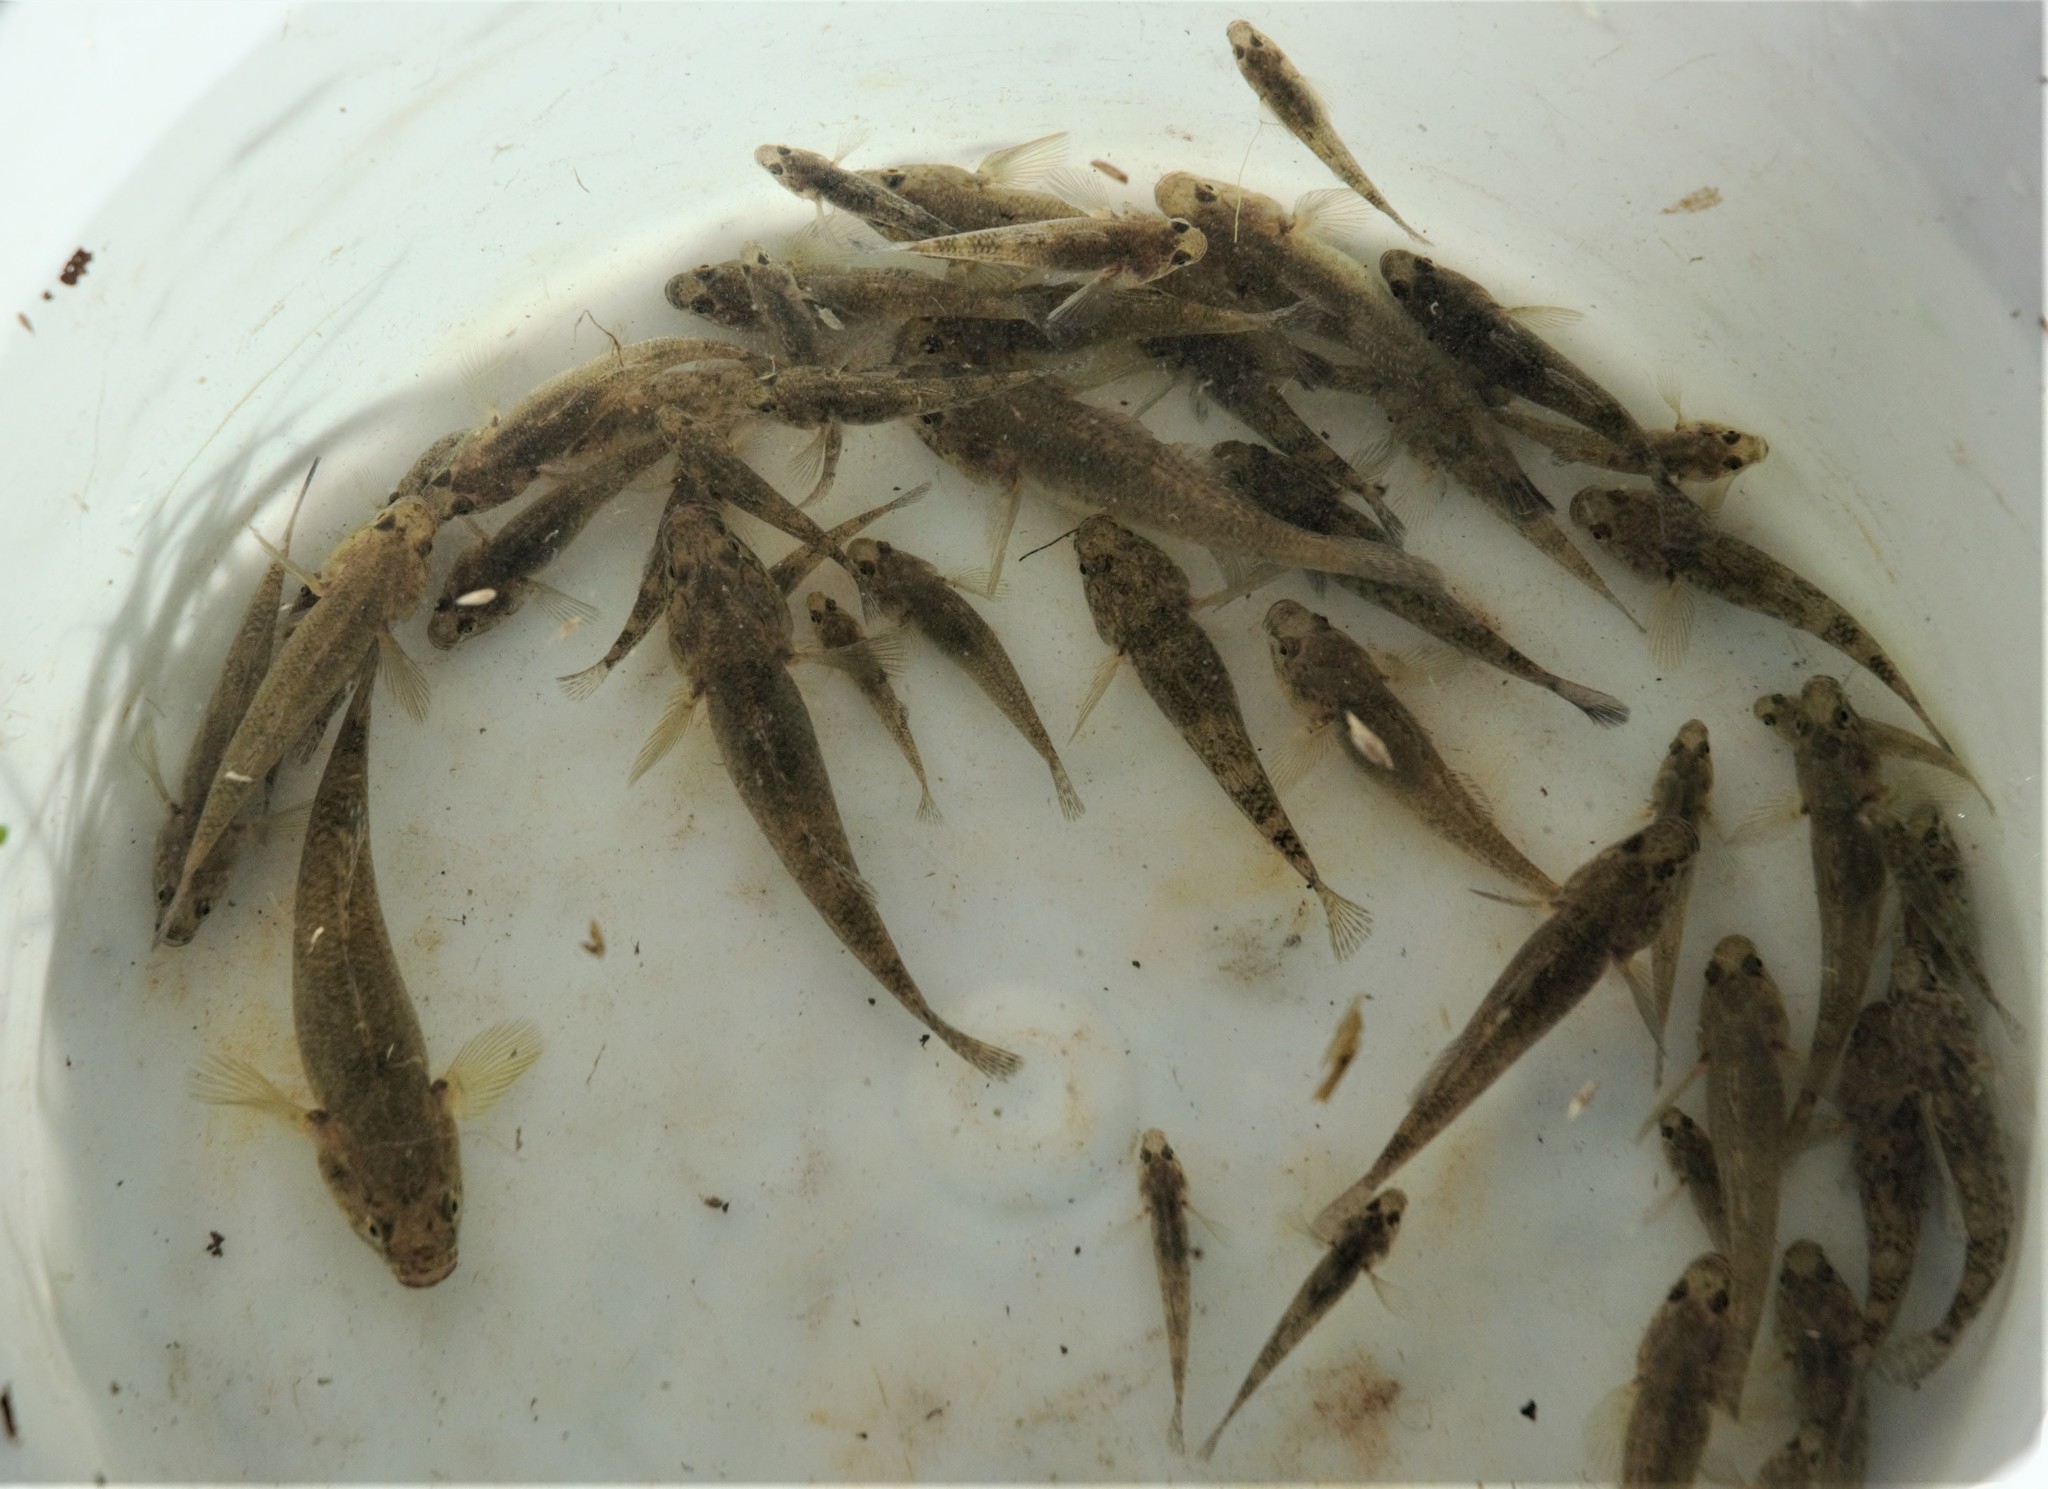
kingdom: Animalia
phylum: Chordata
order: Perciformes
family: Eleotridae
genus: Gobiomorphus
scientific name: Gobiomorphus cotidianus
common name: Common bully
